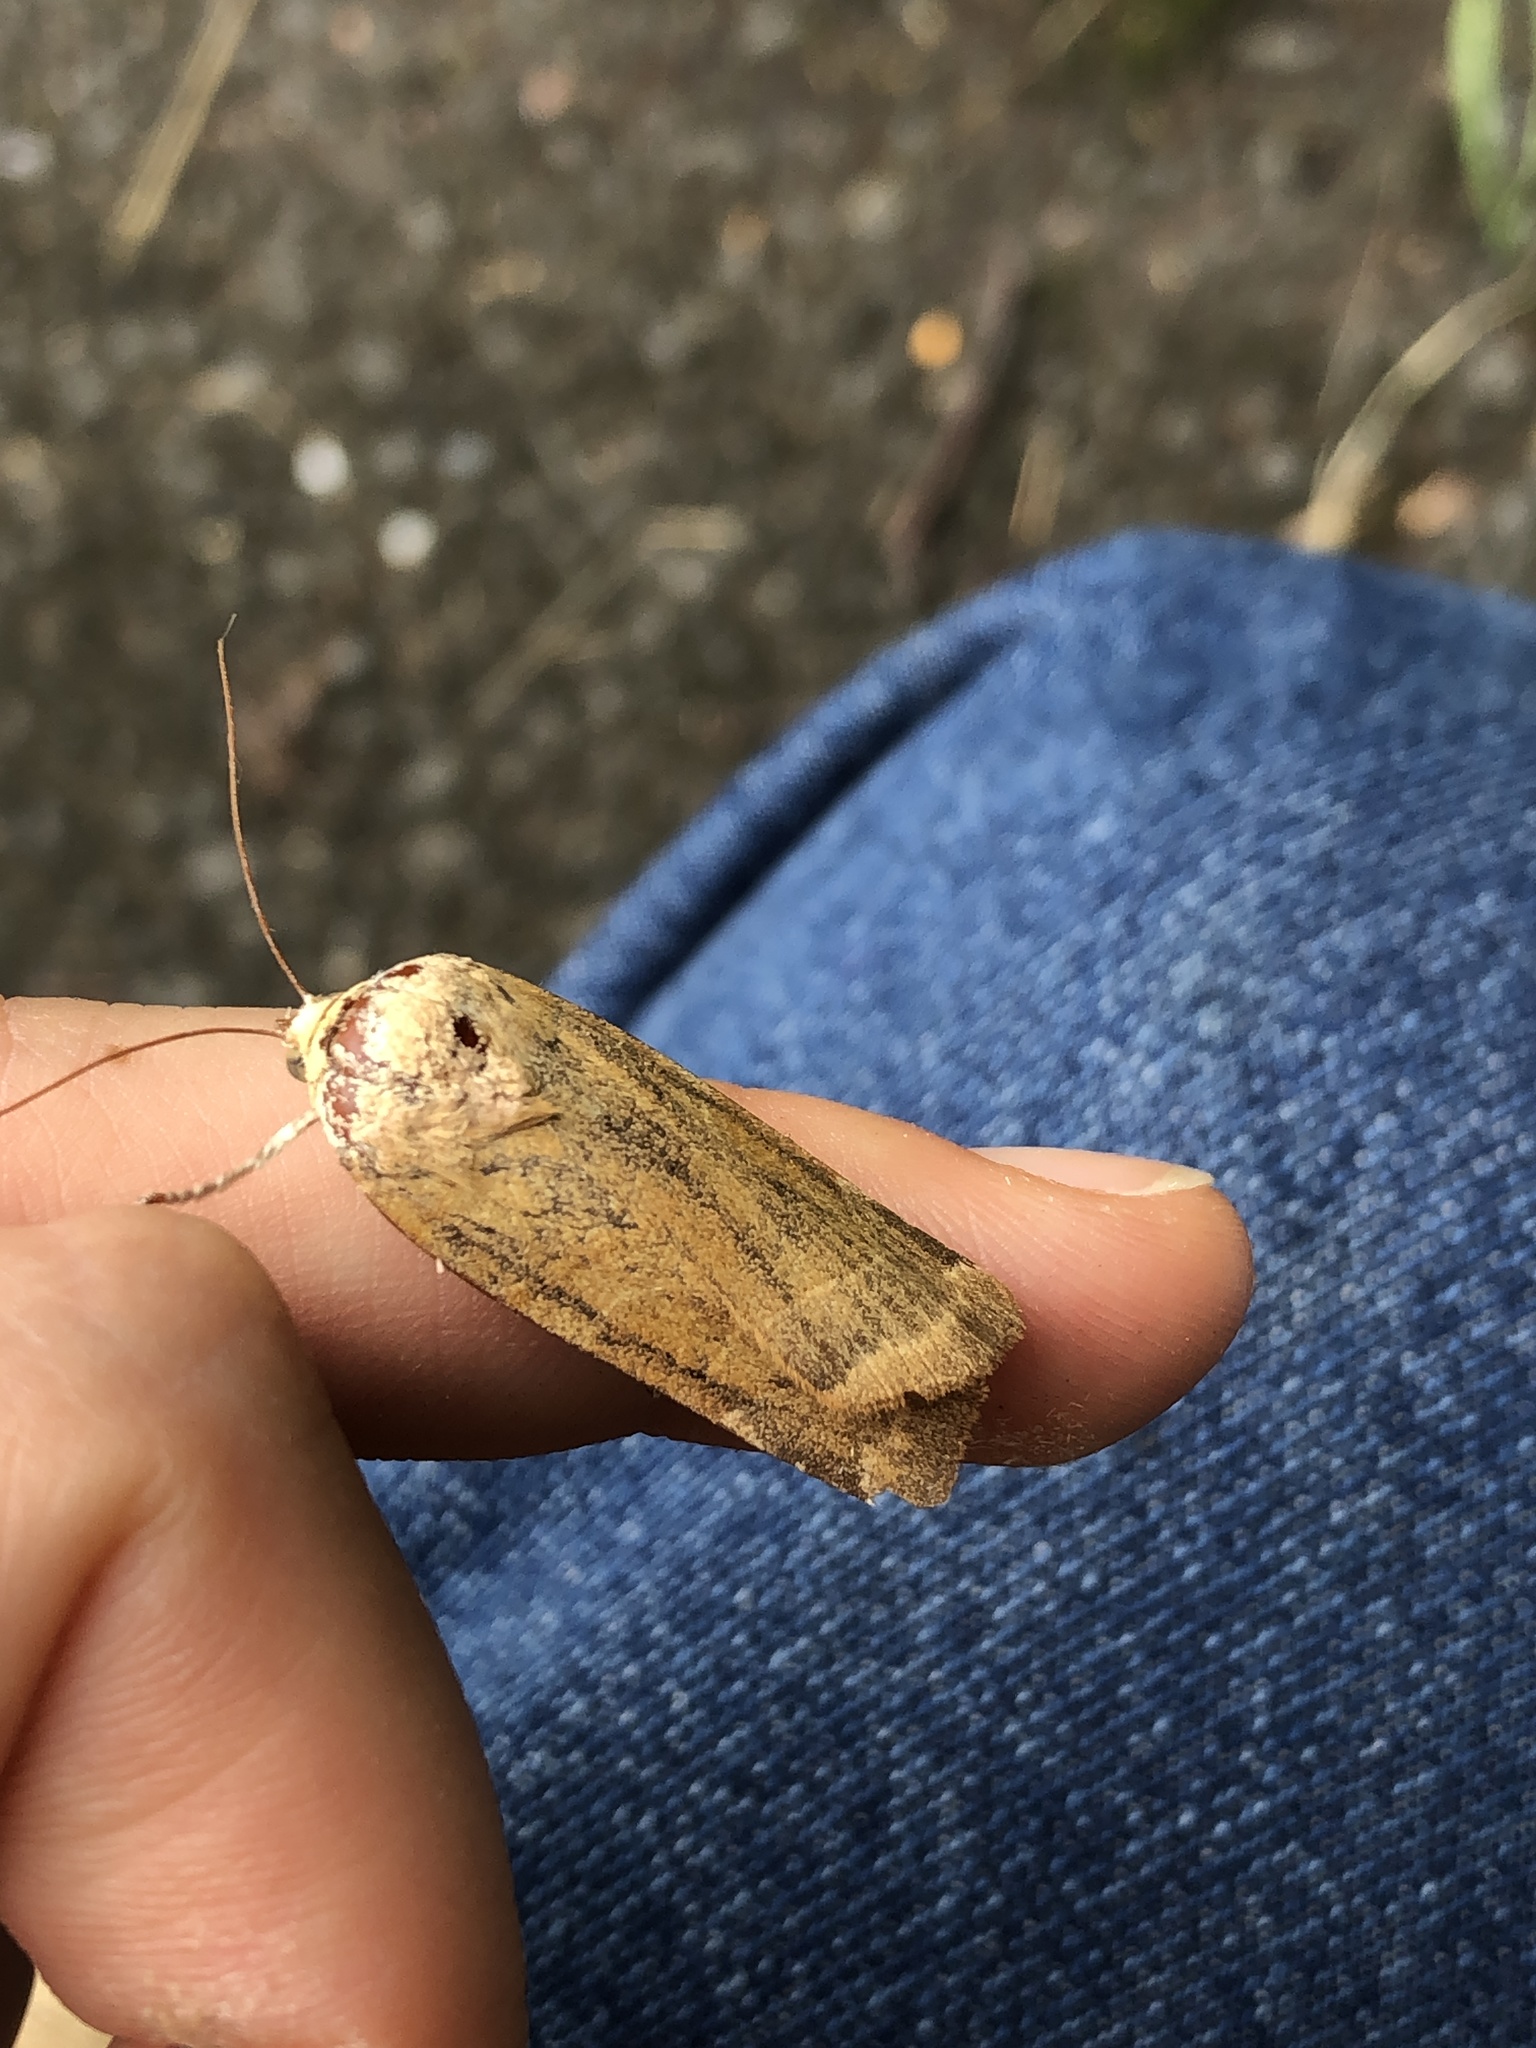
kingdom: Animalia
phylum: Arthropoda
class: Insecta
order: Lepidoptera
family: Noctuidae
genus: Noctua
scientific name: Noctua fimbriata
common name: Broad-bordered yellow underwing
